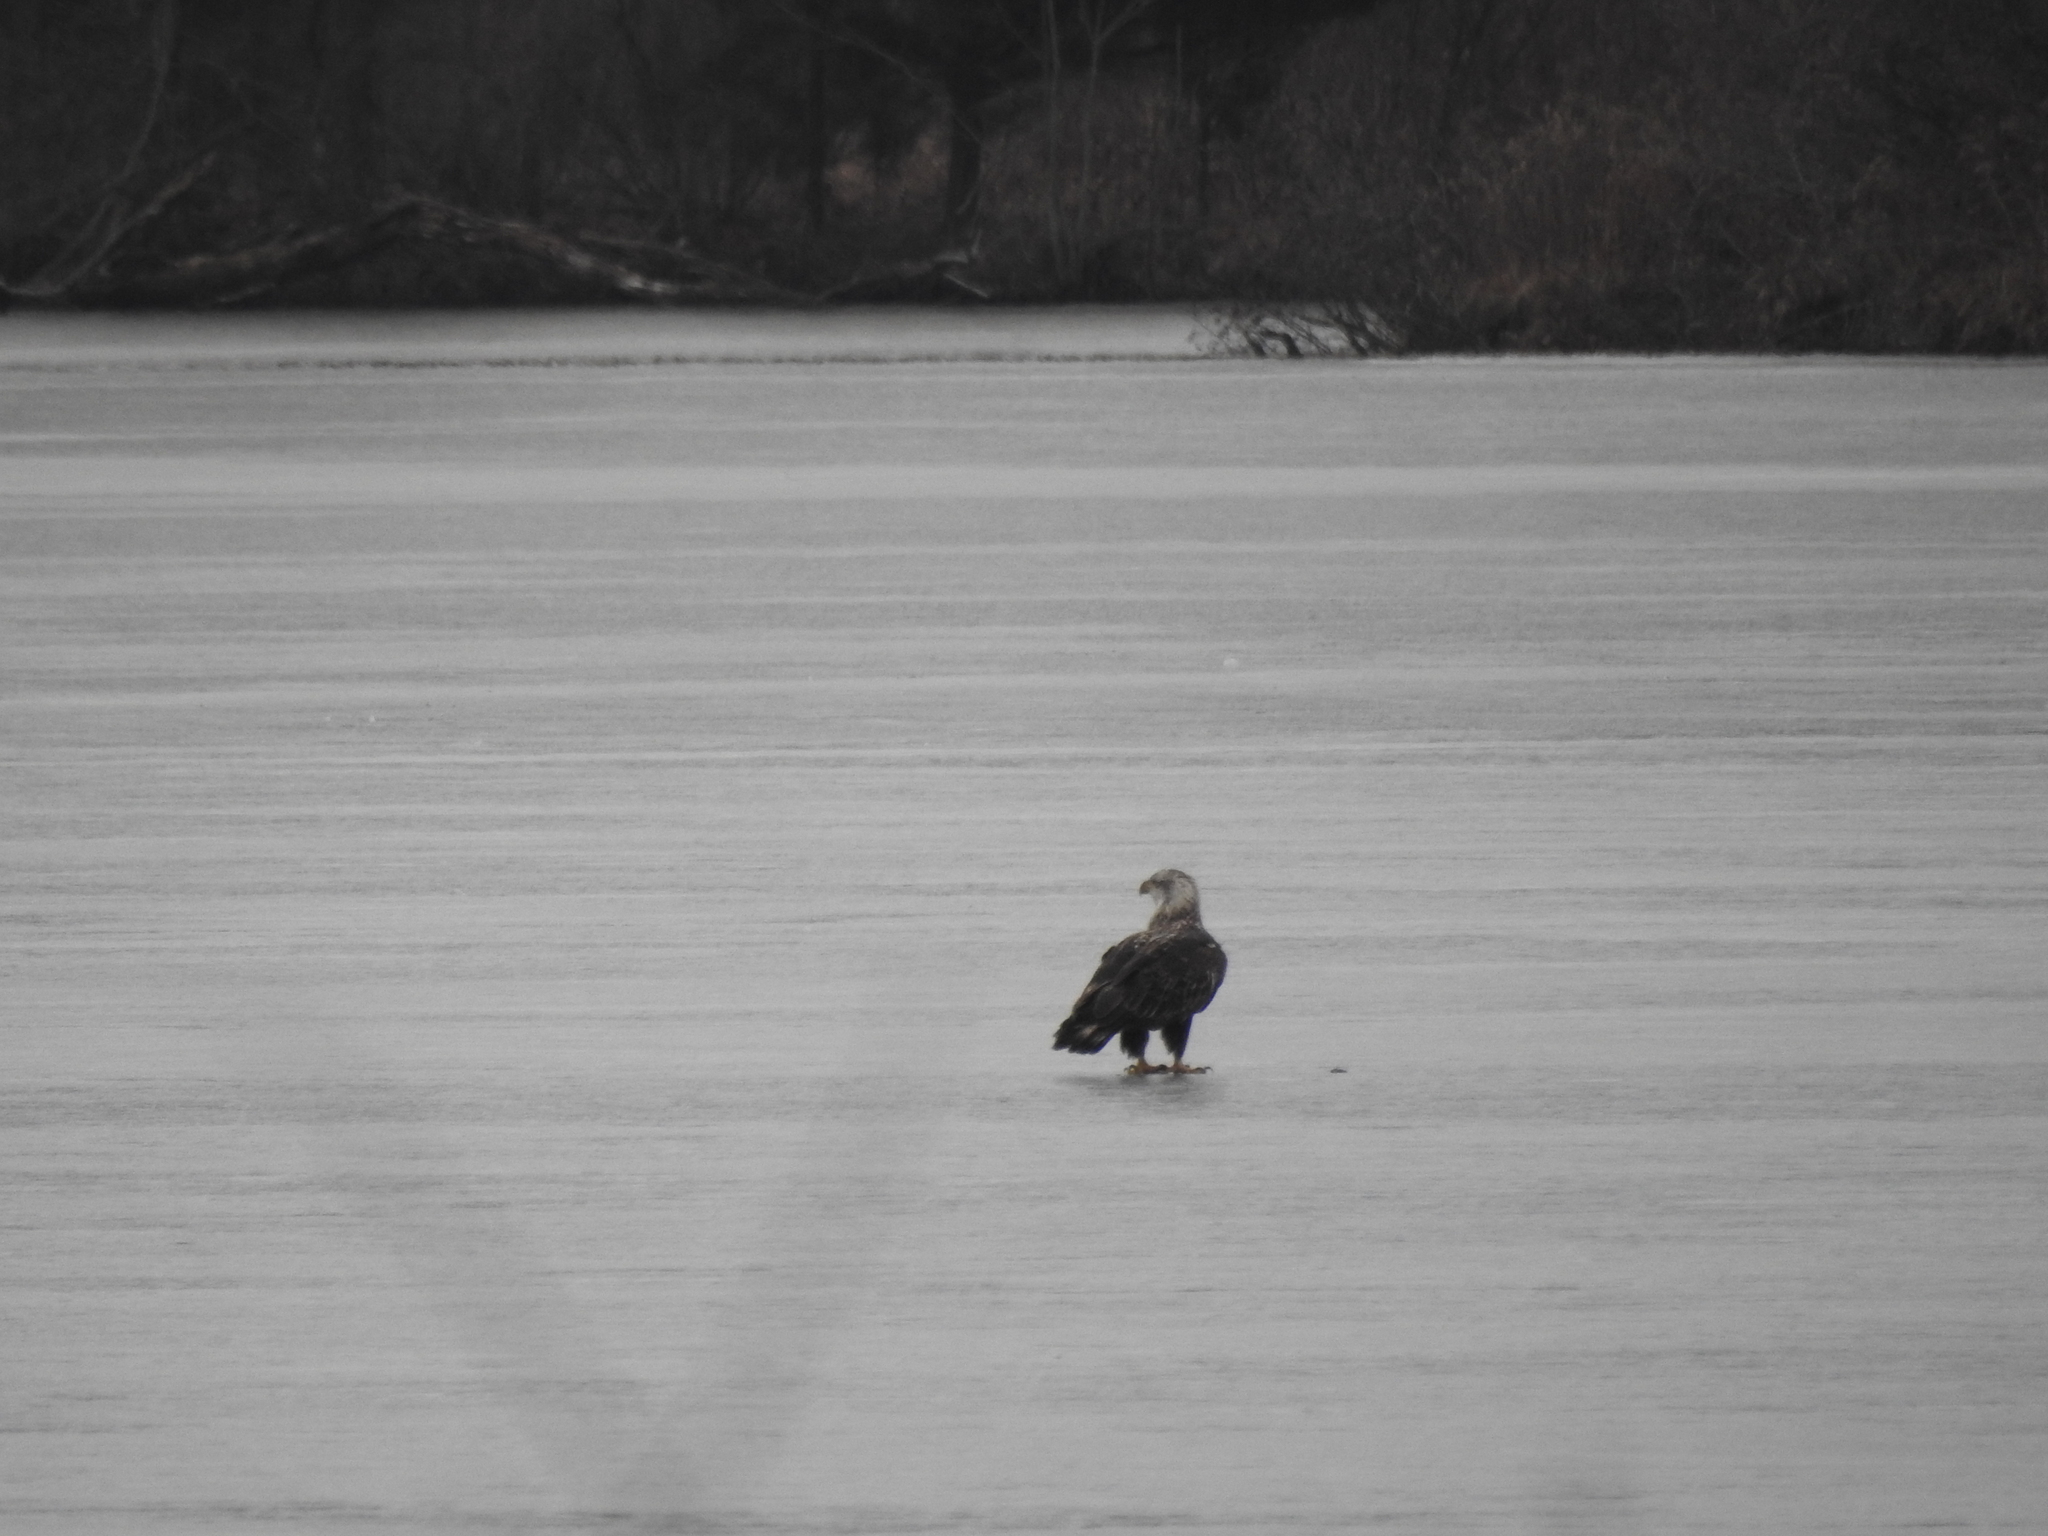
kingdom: Animalia
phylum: Chordata
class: Aves
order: Accipitriformes
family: Accipitridae
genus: Haliaeetus
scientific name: Haliaeetus leucocephalus
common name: Bald eagle
